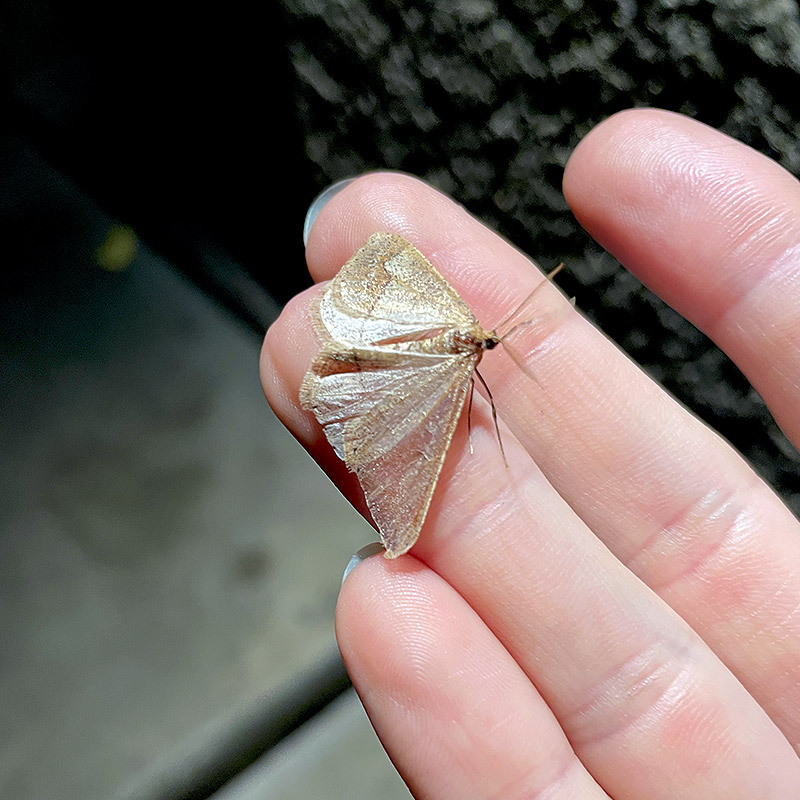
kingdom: Animalia
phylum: Arthropoda
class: Insecta
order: Lepidoptera
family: Geometridae
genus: Agriopis
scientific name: Agriopis marginaria
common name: Dotted border
